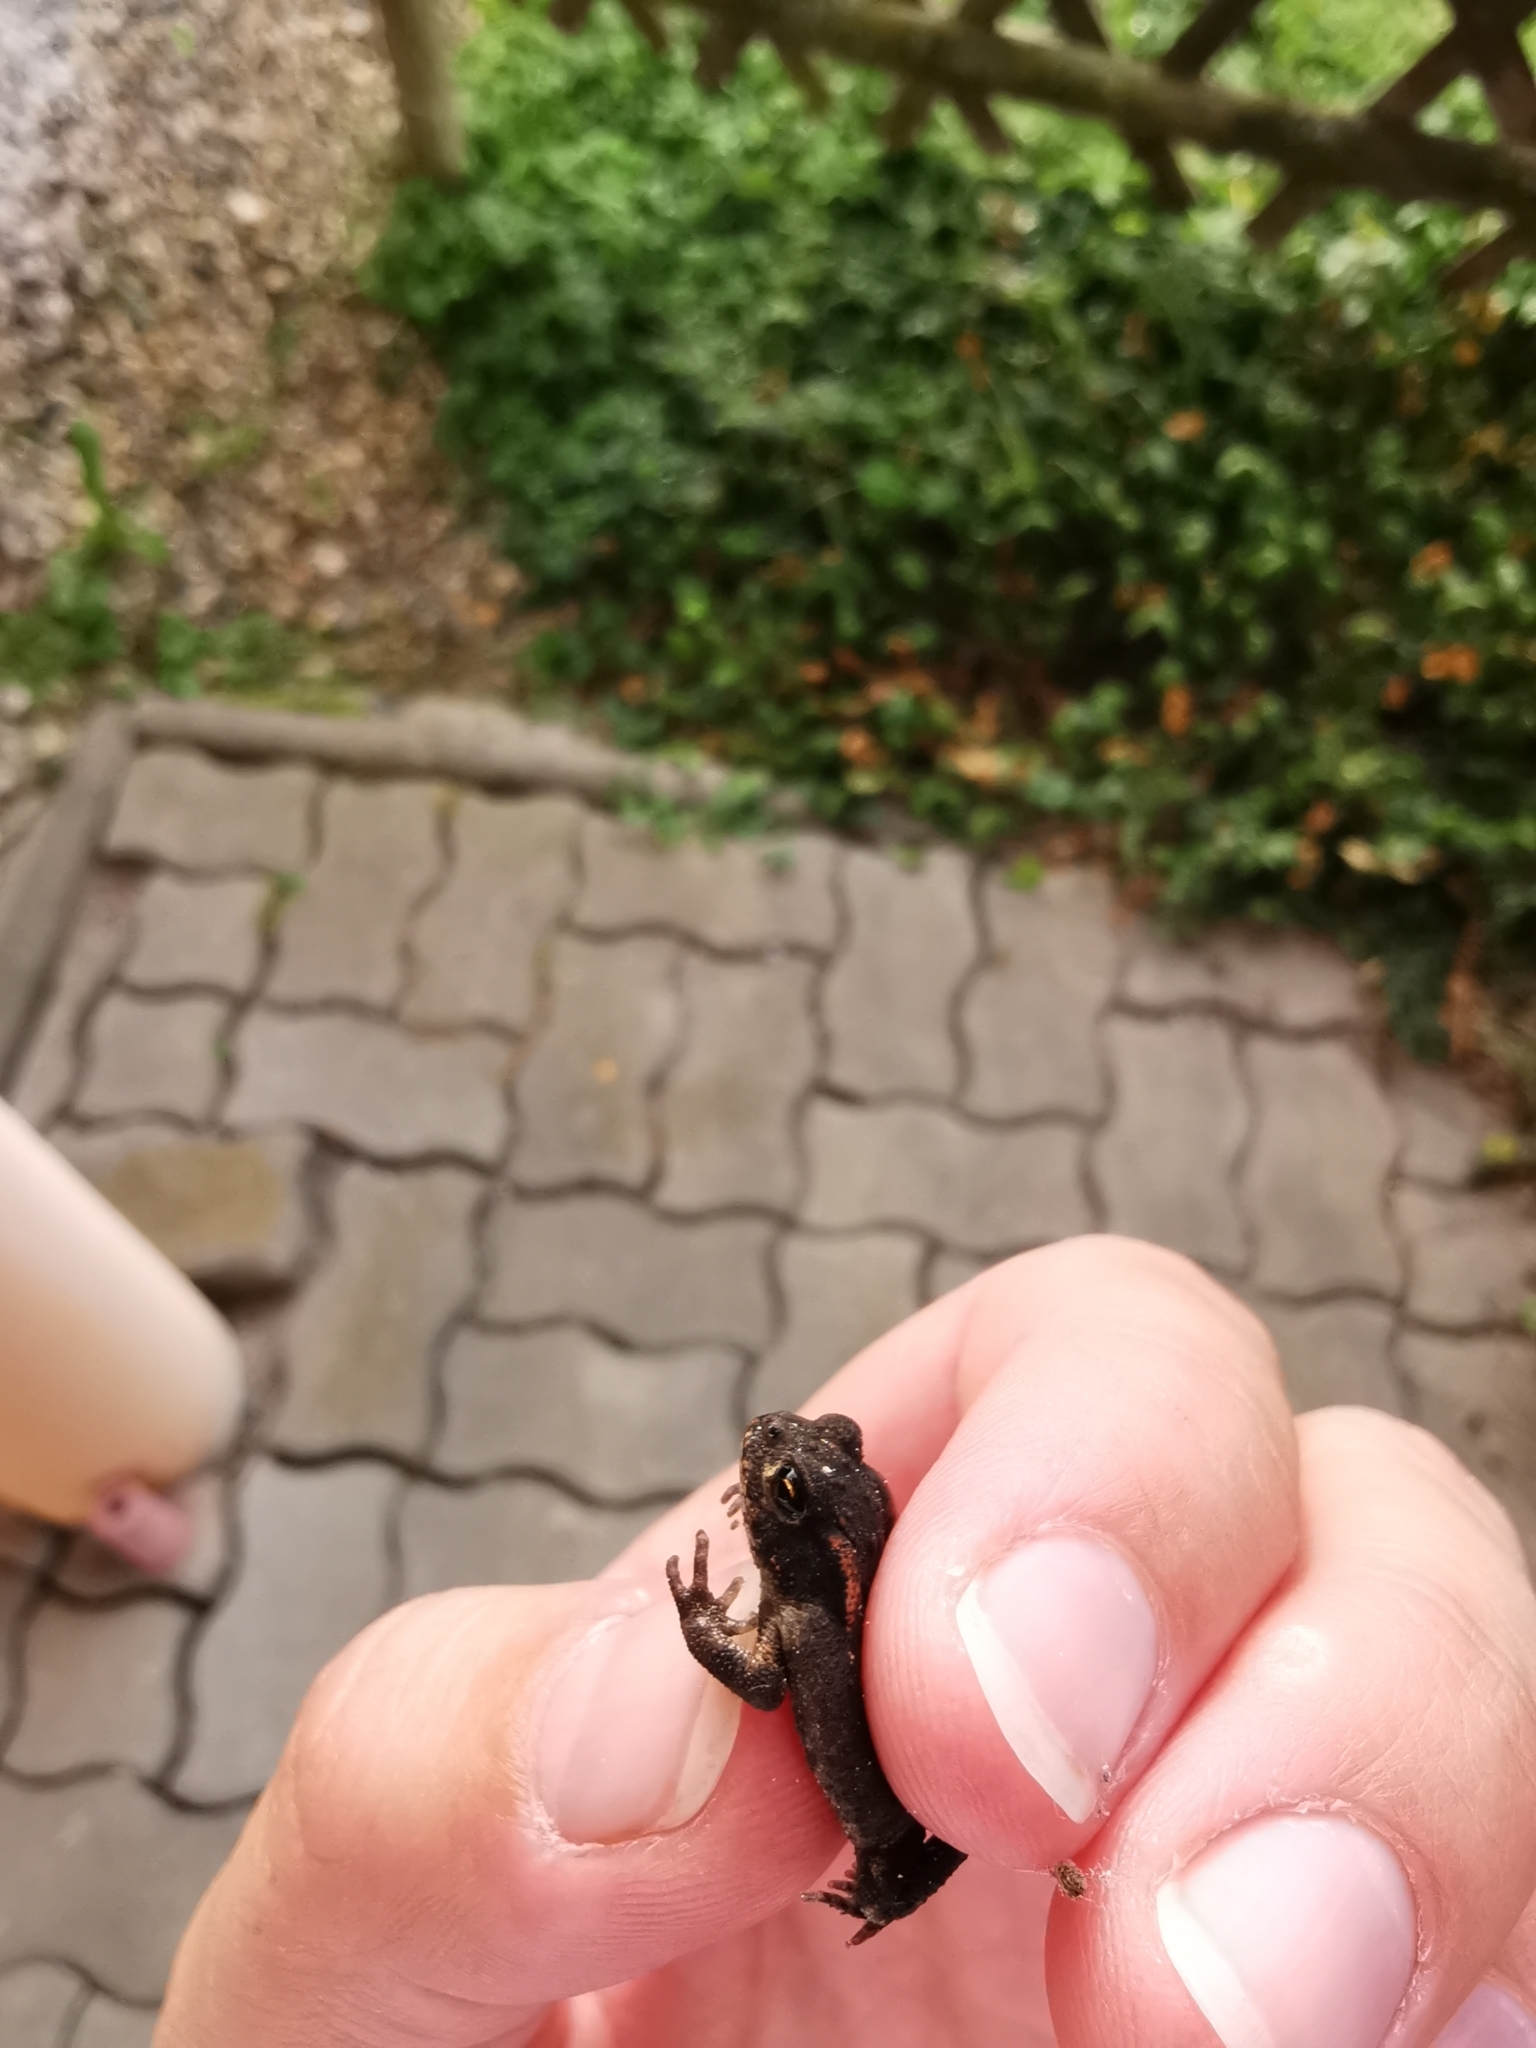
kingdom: Animalia
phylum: Chordata
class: Amphibia
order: Anura
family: Bufonidae
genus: Bufo
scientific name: Bufo bufo
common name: Common toad
